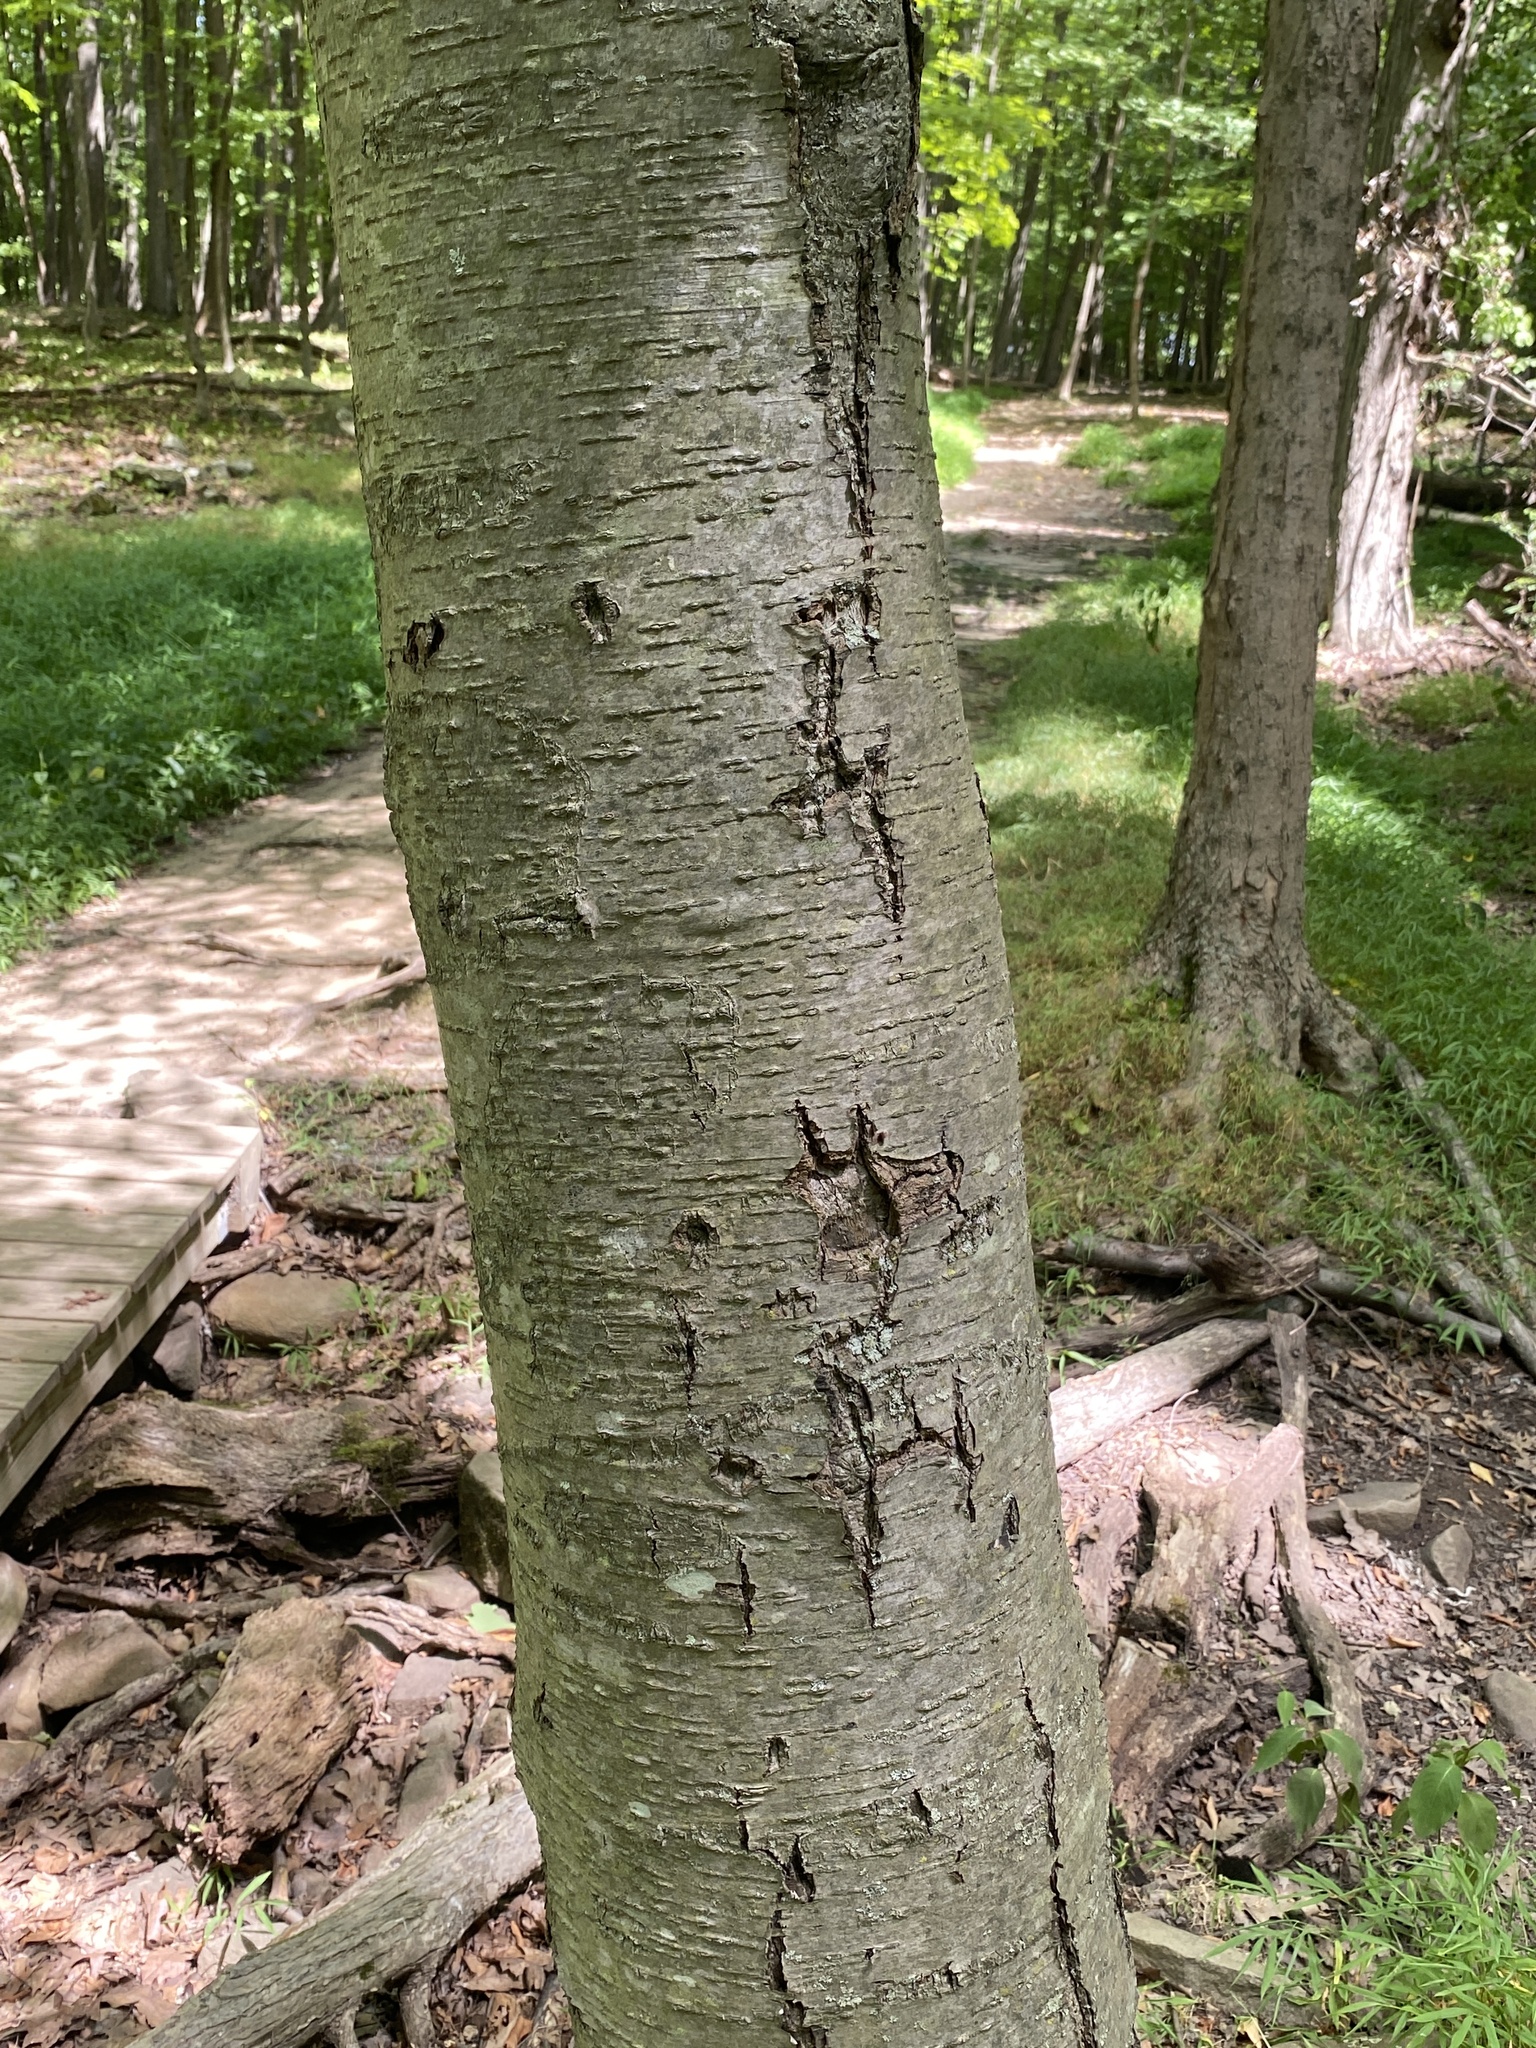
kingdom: Plantae
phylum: Tracheophyta
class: Magnoliopsida
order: Fagales
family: Betulaceae
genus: Betula
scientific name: Betula lenta
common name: Black birch
